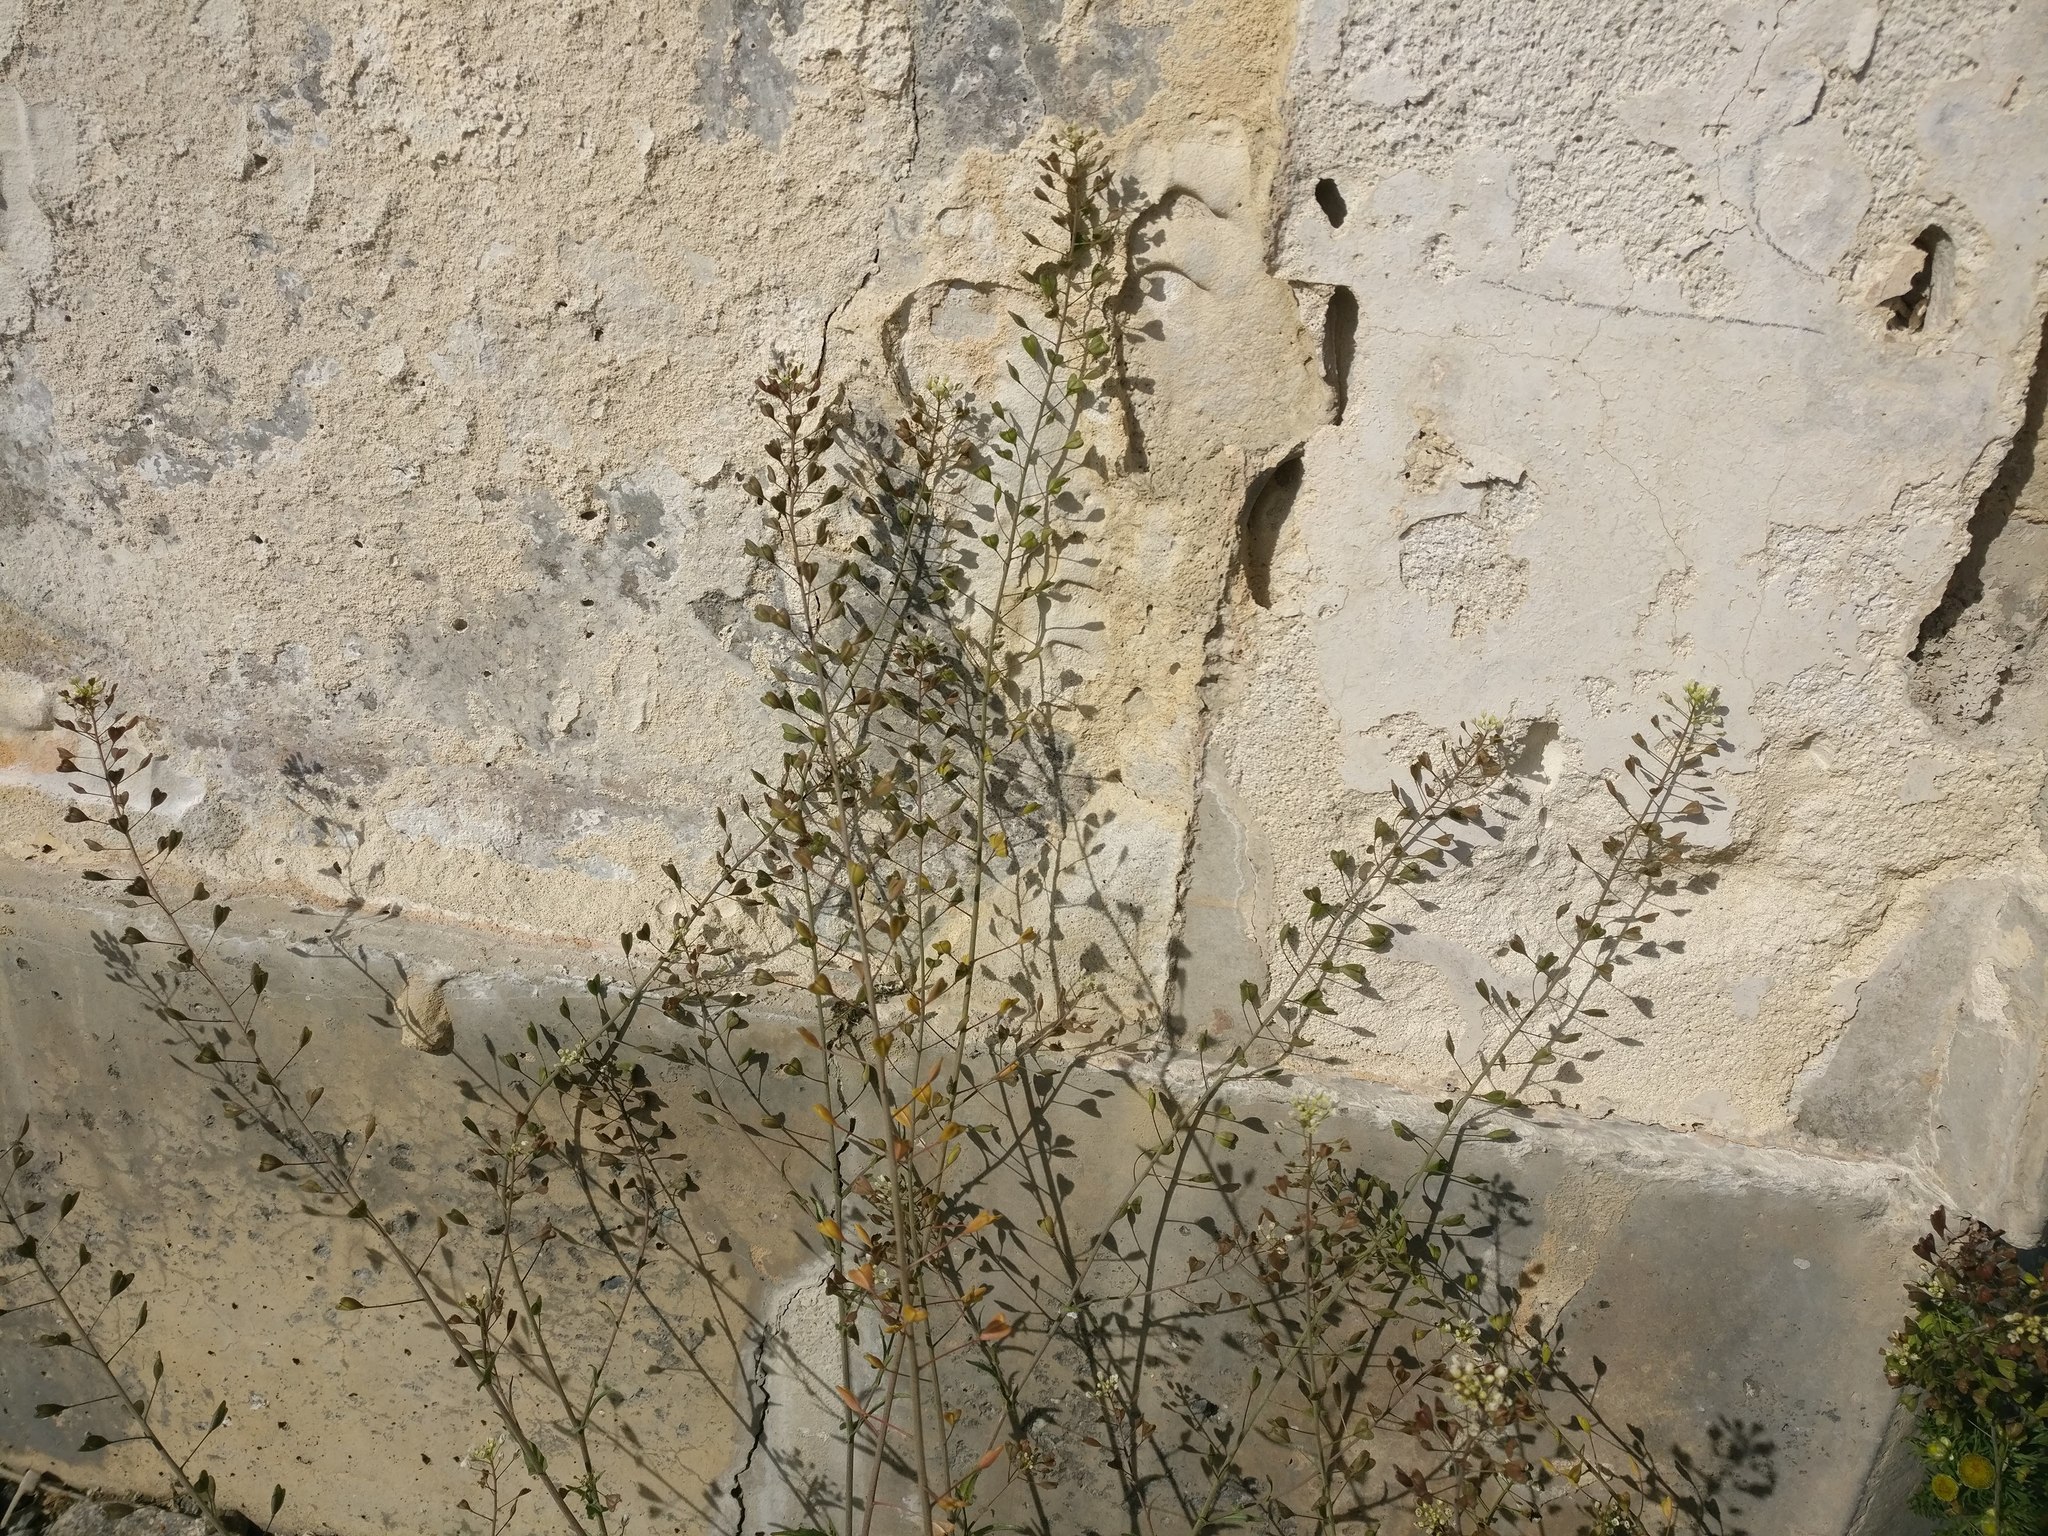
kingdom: Plantae
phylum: Tracheophyta
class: Magnoliopsida
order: Brassicales
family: Brassicaceae
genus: Capsella
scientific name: Capsella bursa-pastoris
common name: Shepherd's purse
